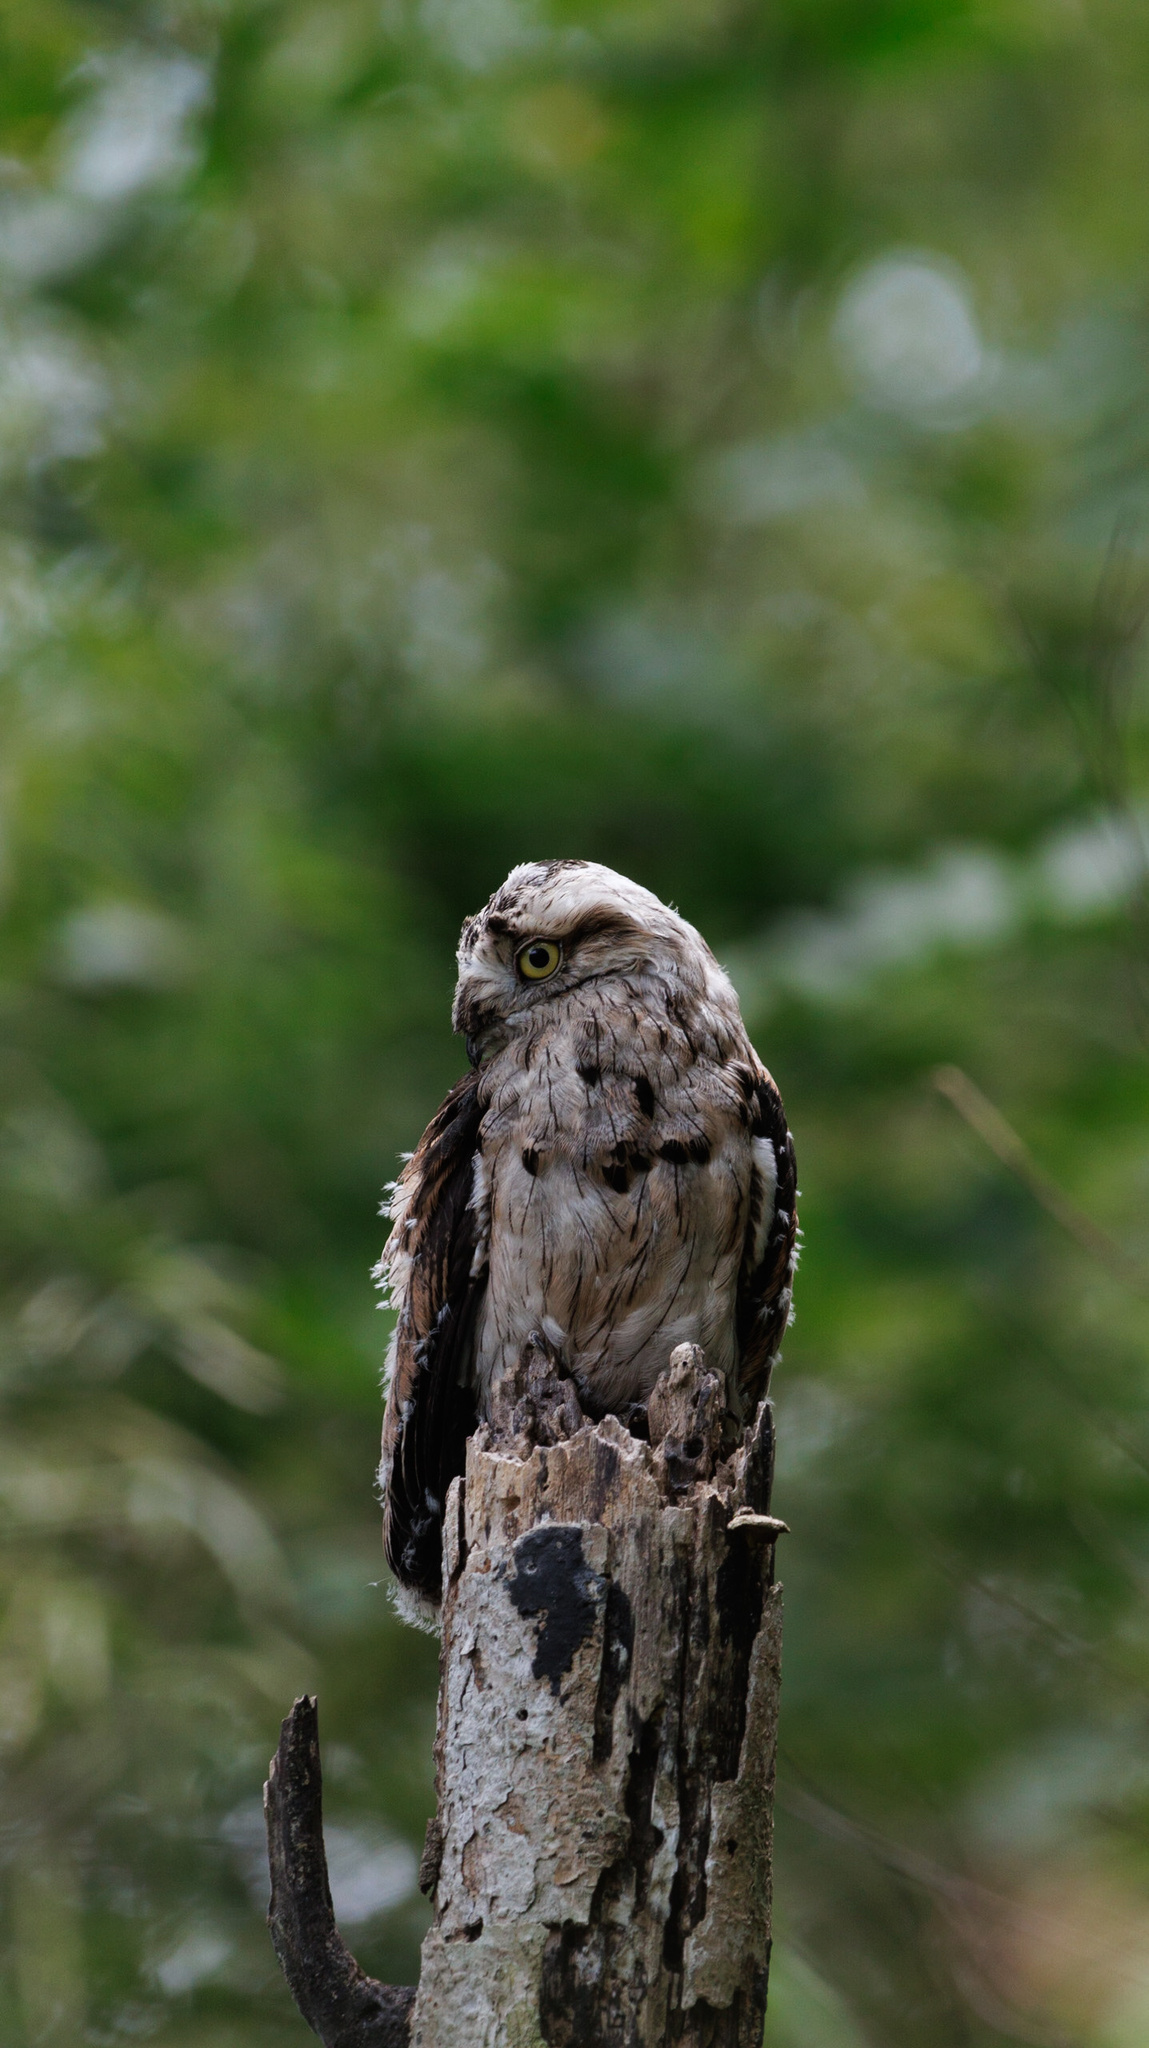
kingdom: Animalia
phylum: Chordata
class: Aves
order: Nyctibiiformes
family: Nyctibiidae
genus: Nyctibius
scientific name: Nyctibius griseus
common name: Common potoo
